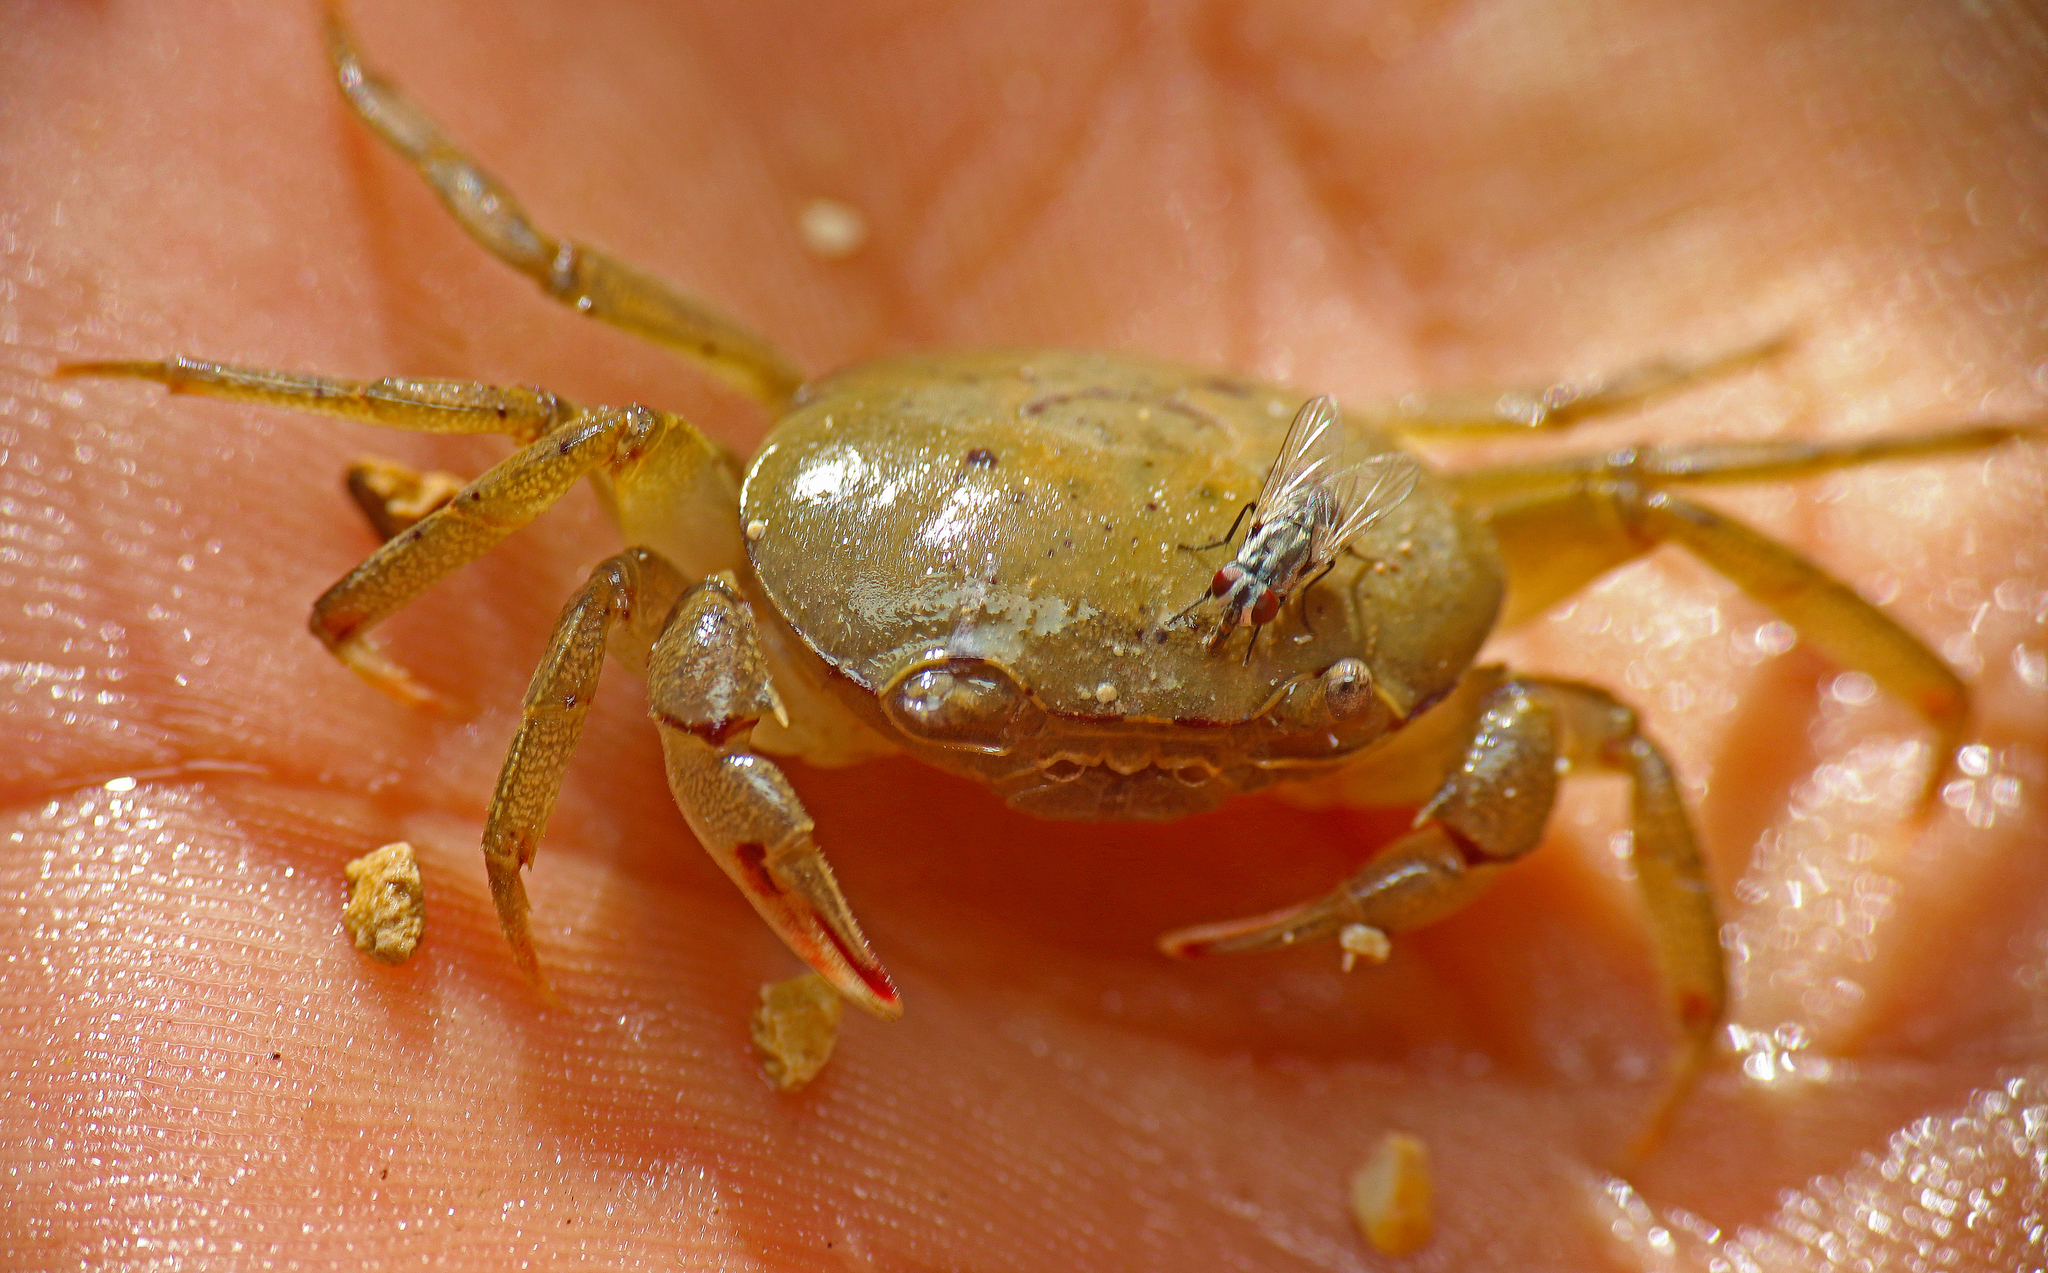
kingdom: Animalia
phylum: Arthropoda
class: Malacostraca
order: Decapoda
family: Gecarcinucidae
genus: Austrothelphusa
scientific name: Austrothelphusa transversa
